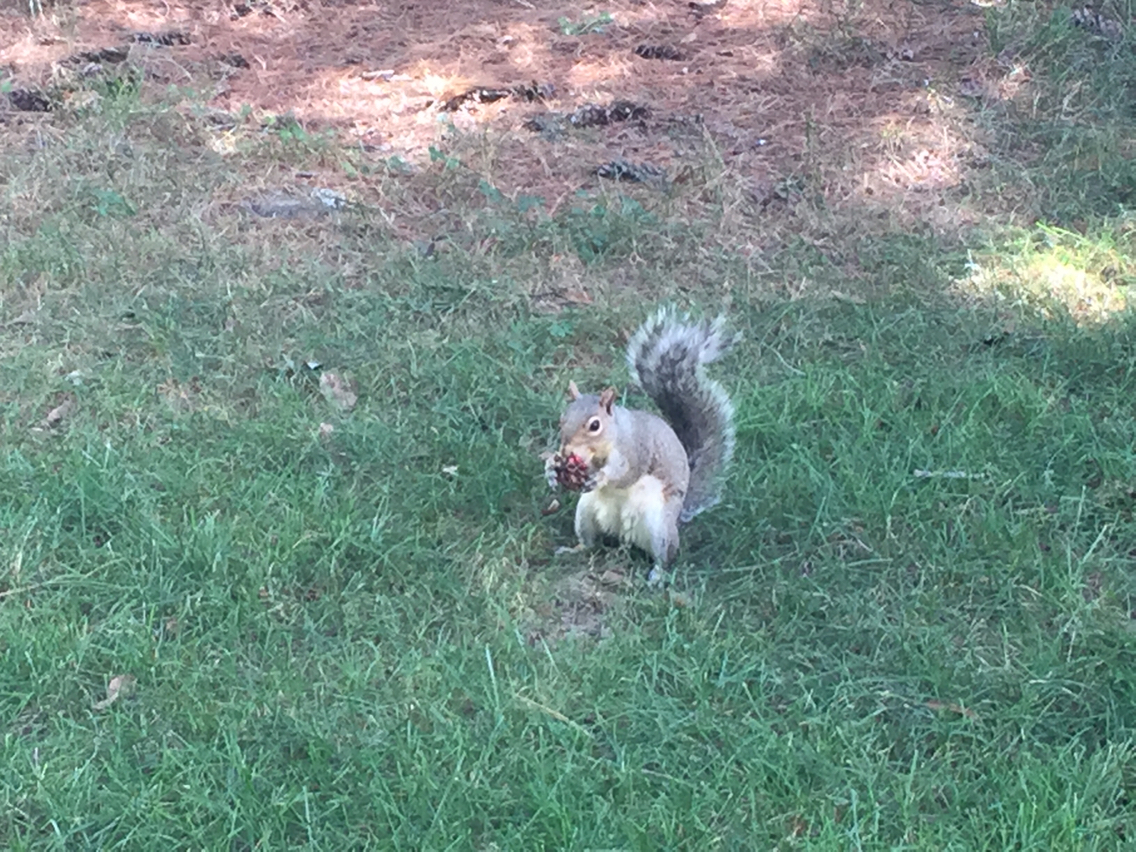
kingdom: Animalia
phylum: Chordata
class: Mammalia
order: Rodentia
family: Sciuridae
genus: Sciurus
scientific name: Sciurus carolinensis
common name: Eastern gray squirrel
